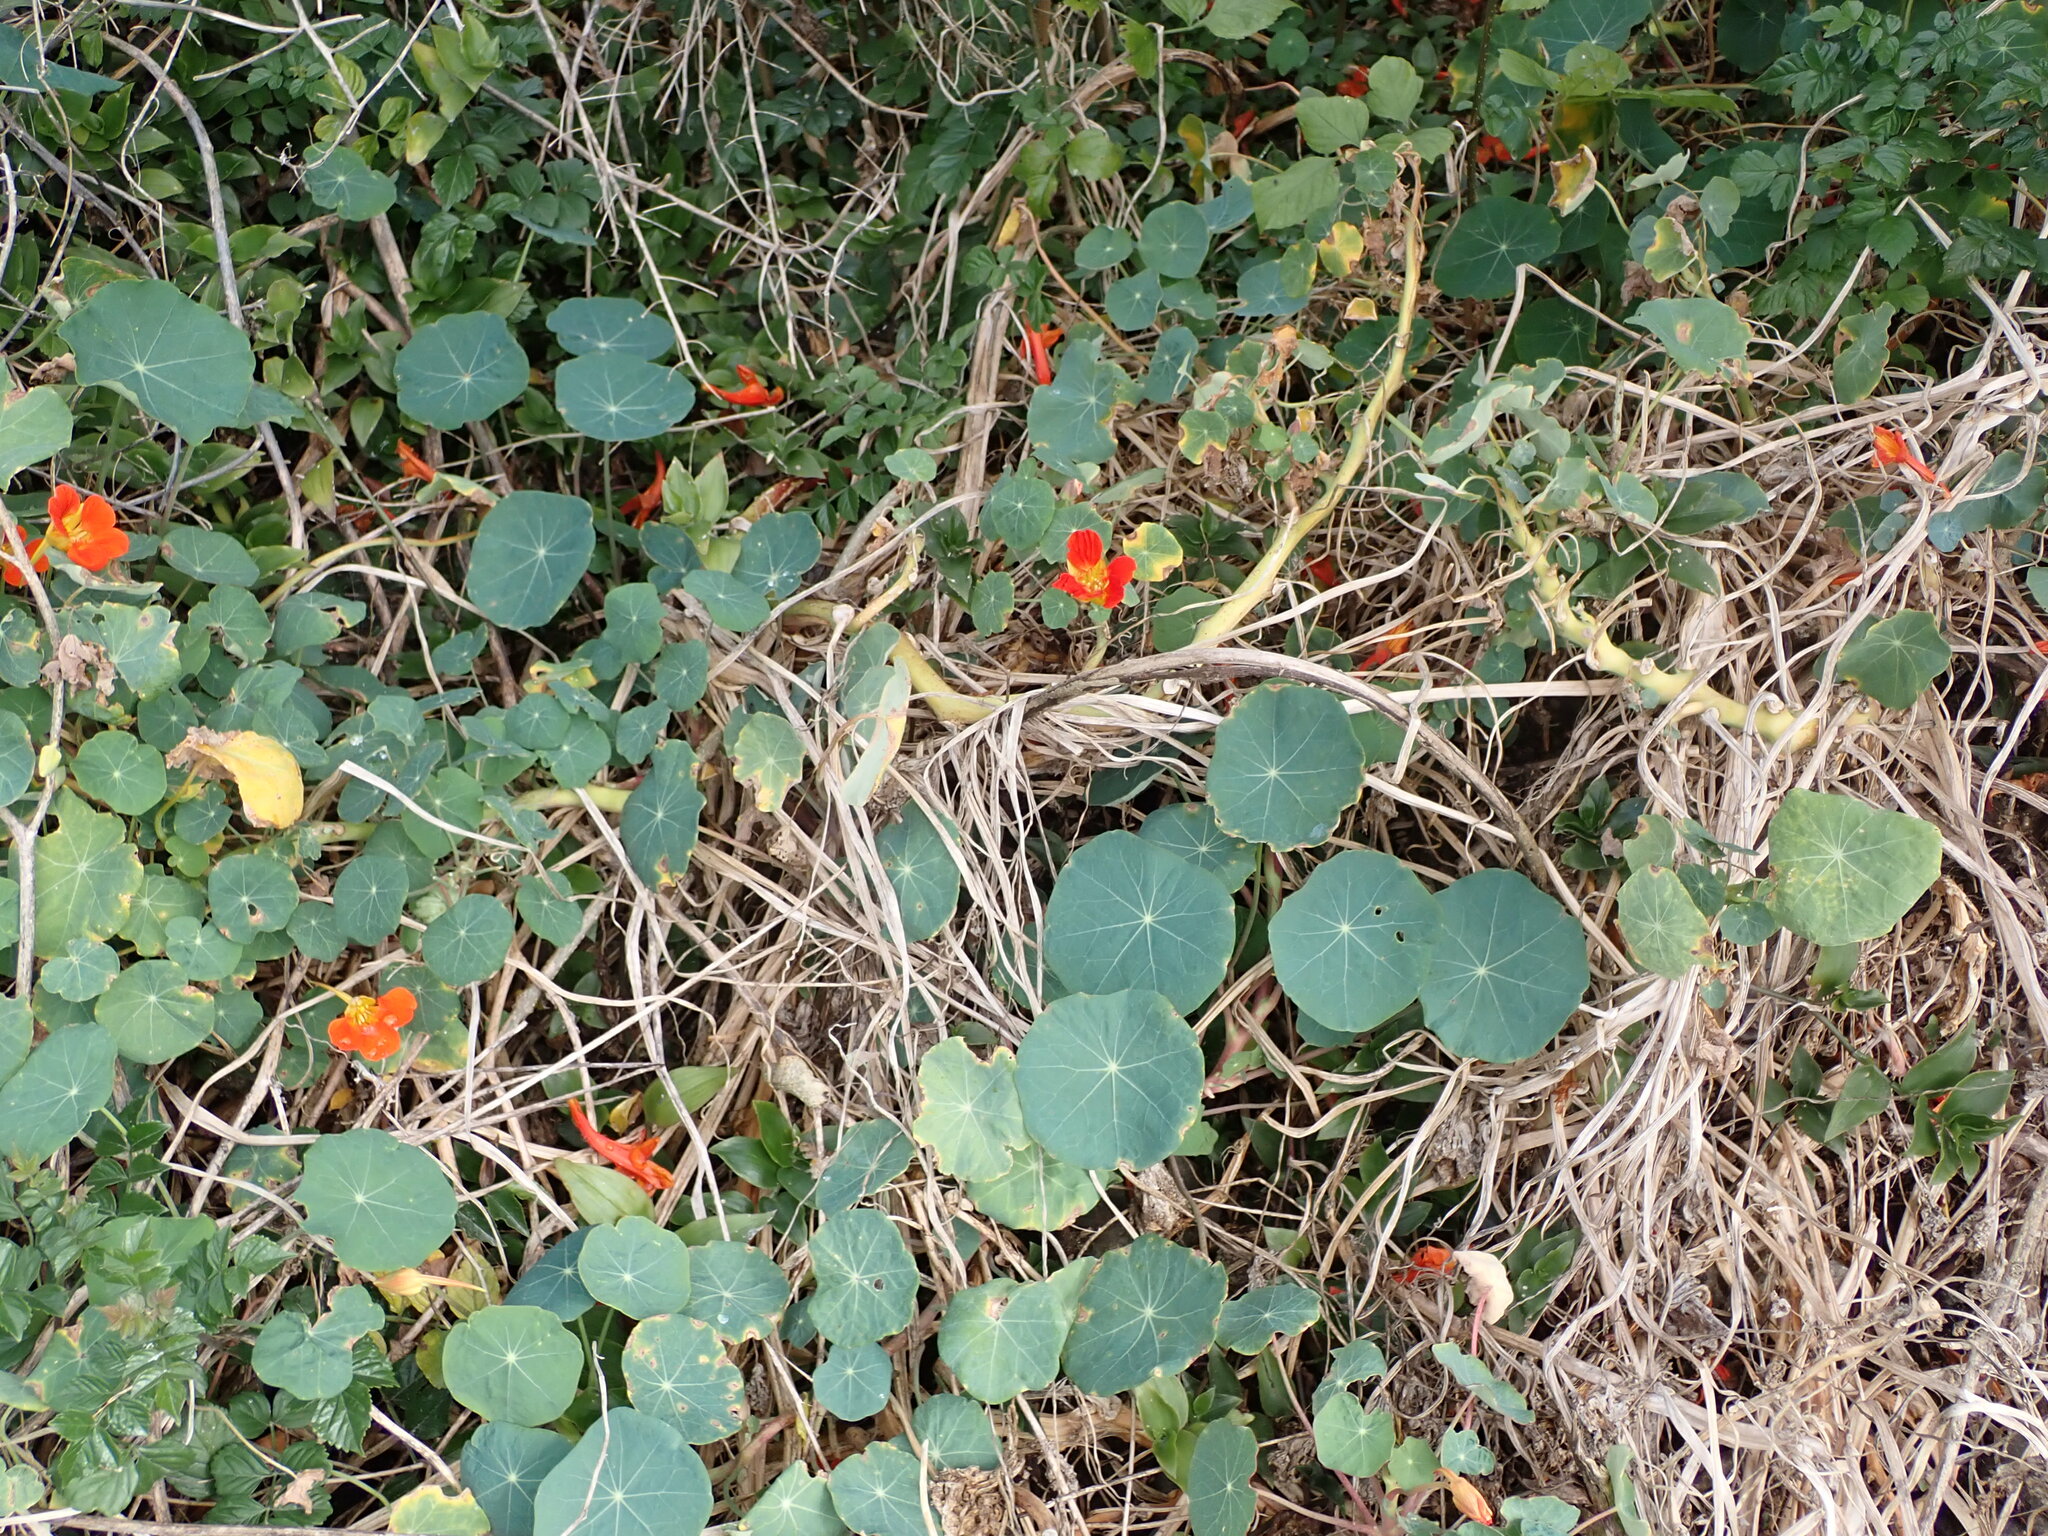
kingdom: Plantae
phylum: Tracheophyta
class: Magnoliopsida
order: Brassicales
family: Tropaeolaceae
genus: Tropaeolum
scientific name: Tropaeolum majus
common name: Nasturtium
